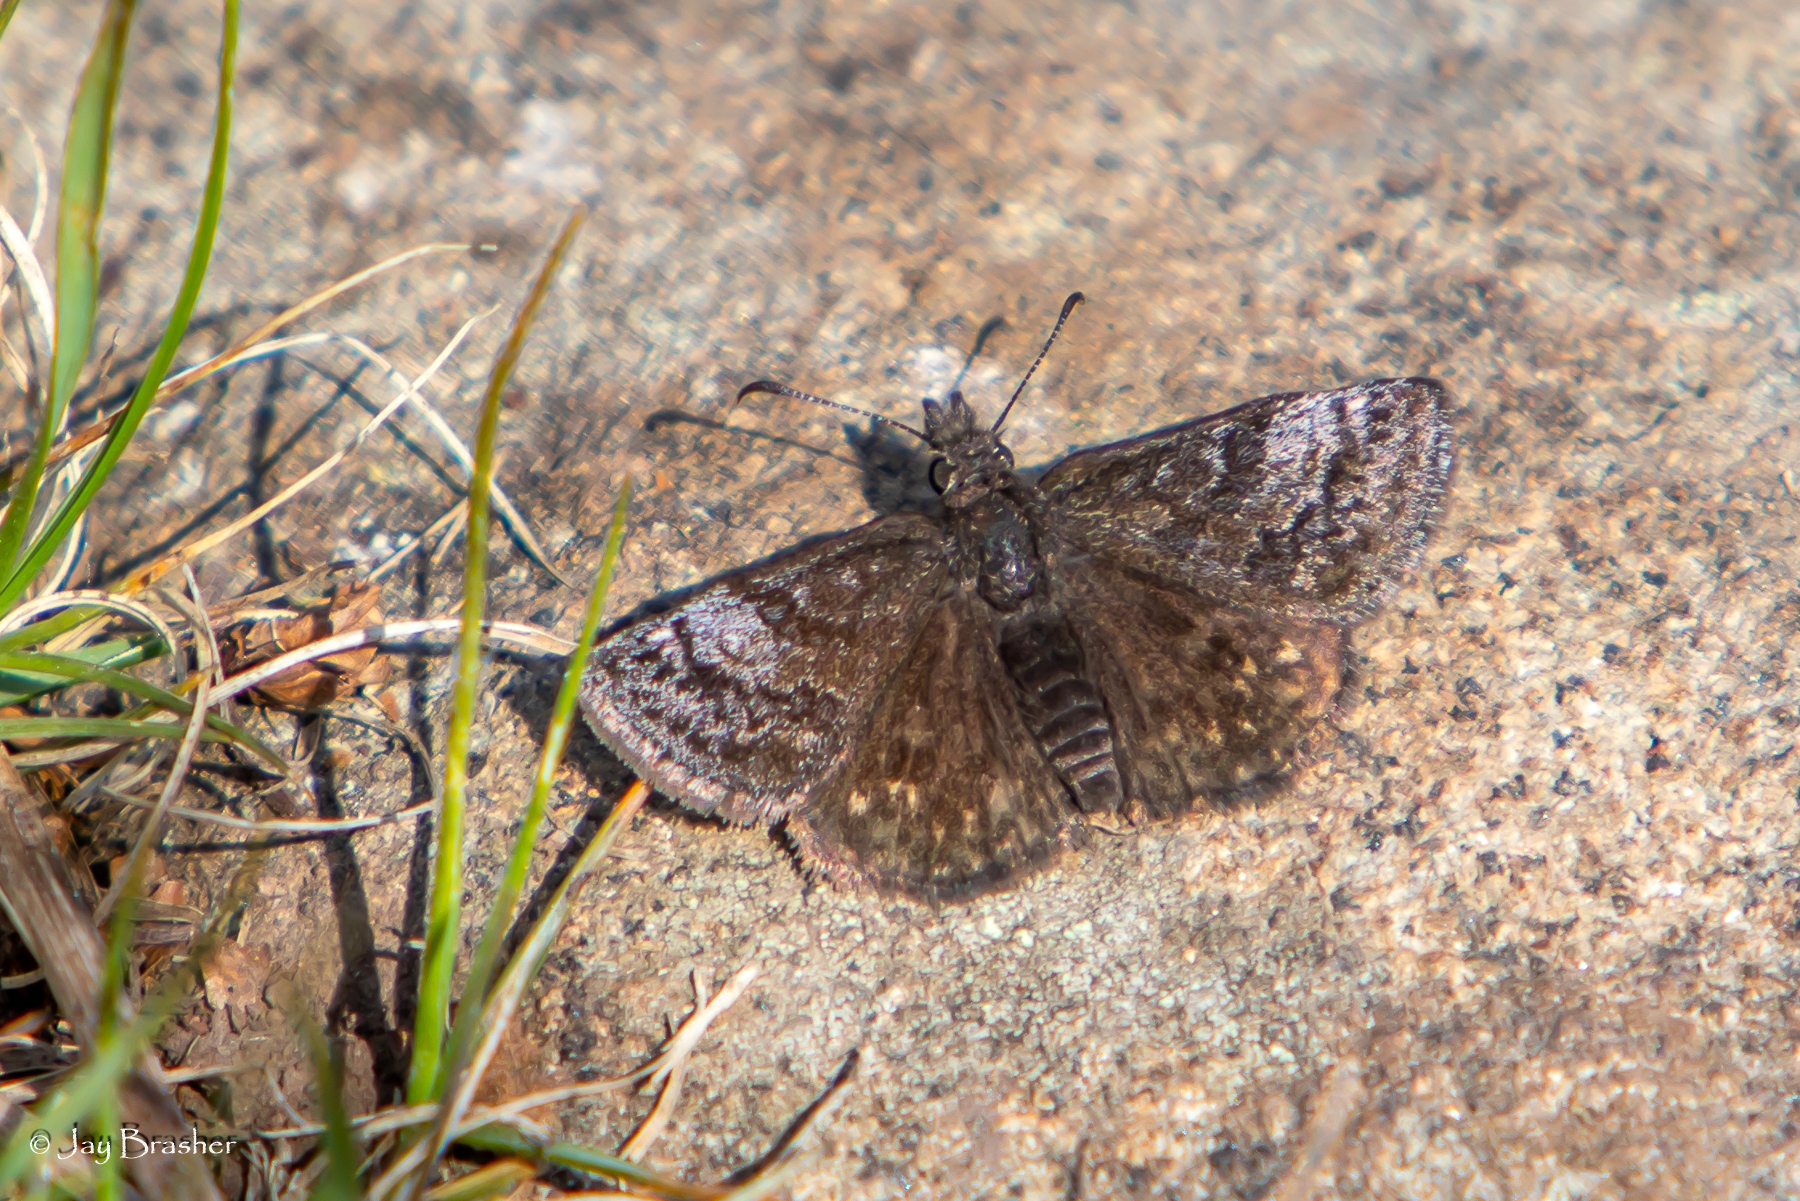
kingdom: Animalia
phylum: Arthropoda
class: Insecta
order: Lepidoptera
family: Hesperiidae
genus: Erynnis
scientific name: Erynnis icelus
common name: Dreamy duskywing
